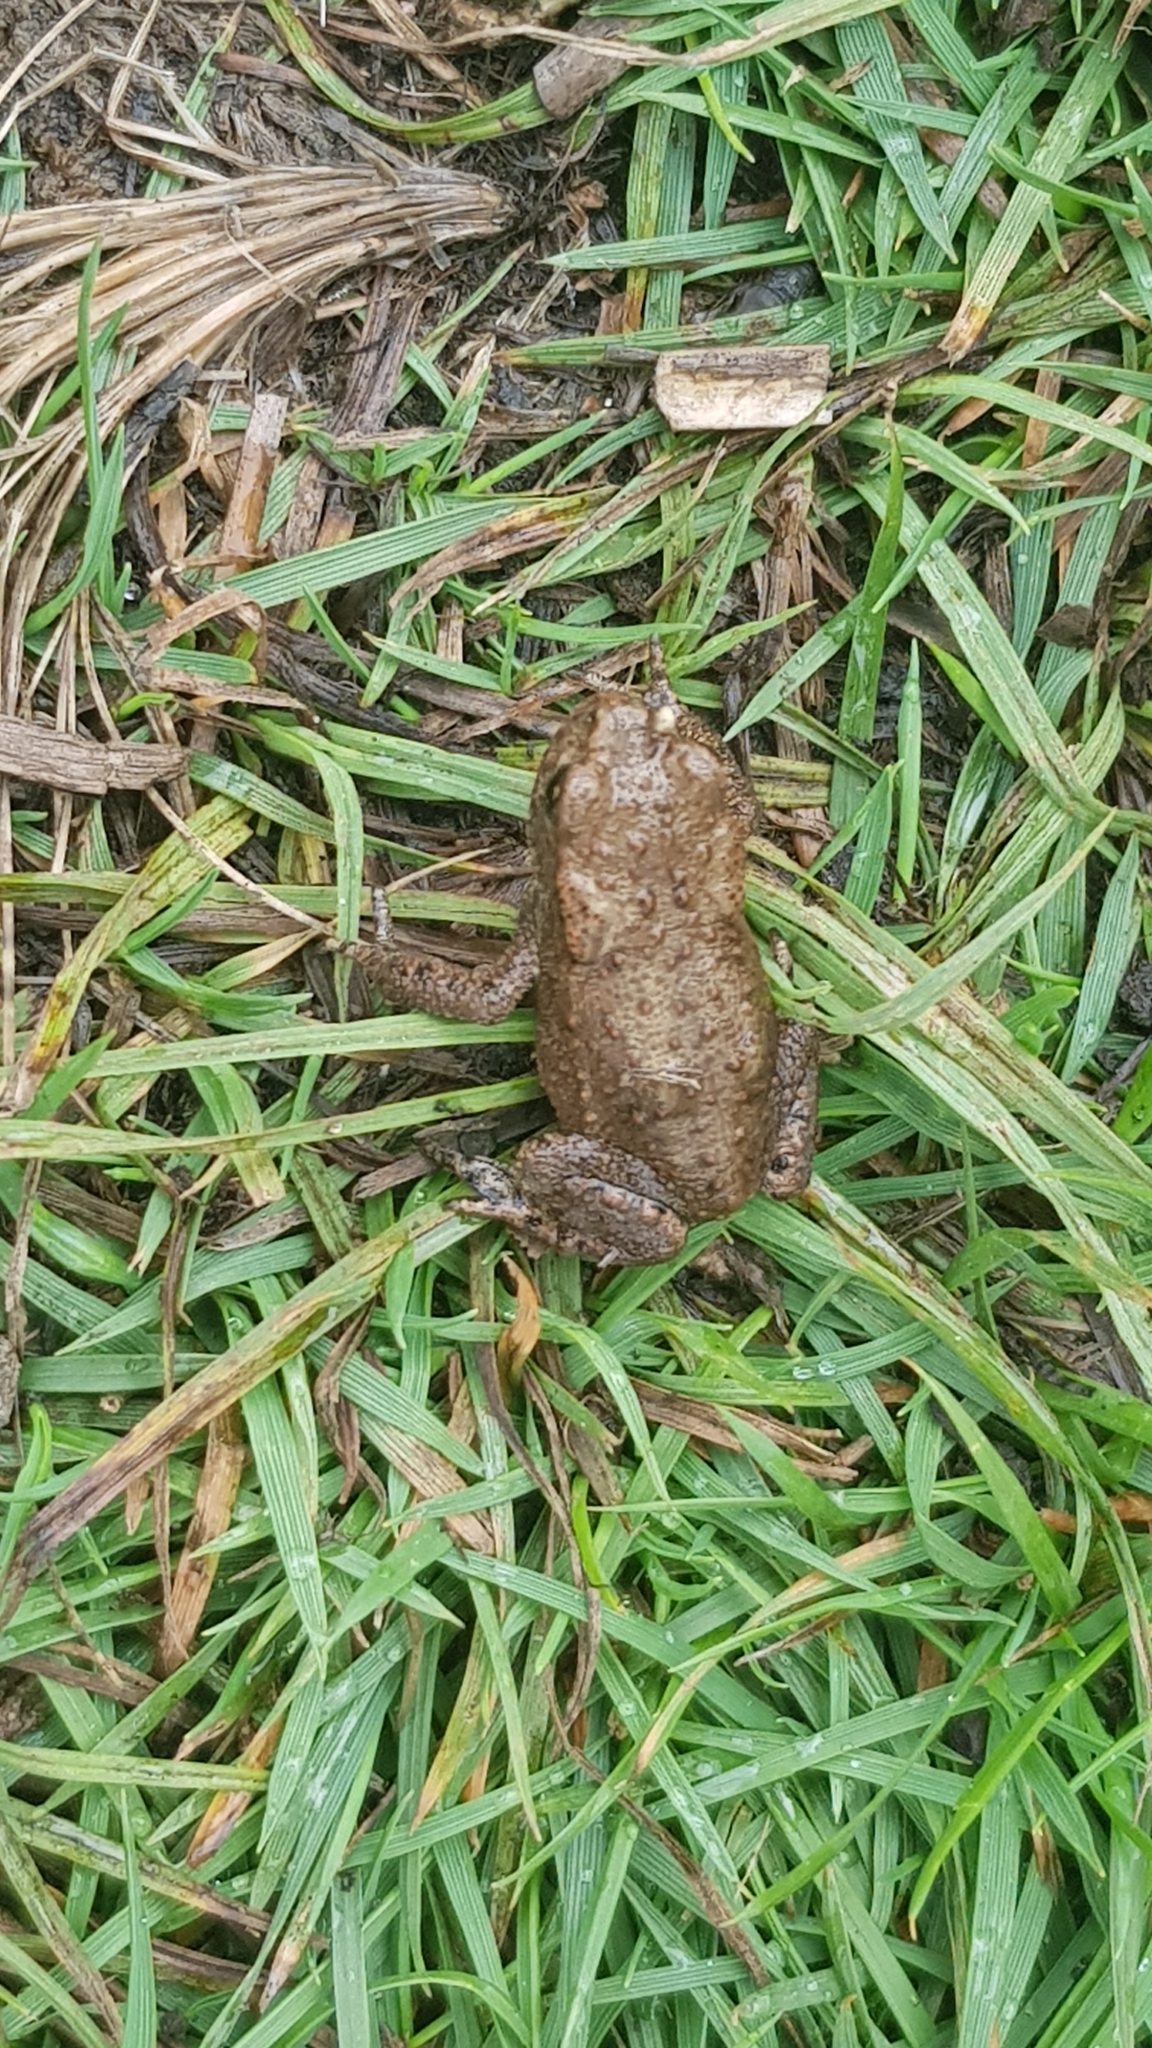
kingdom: Animalia
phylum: Chordata
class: Amphibia
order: Anura
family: Bufonidae
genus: Bufo
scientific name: Bufo bufo
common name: Common toad
